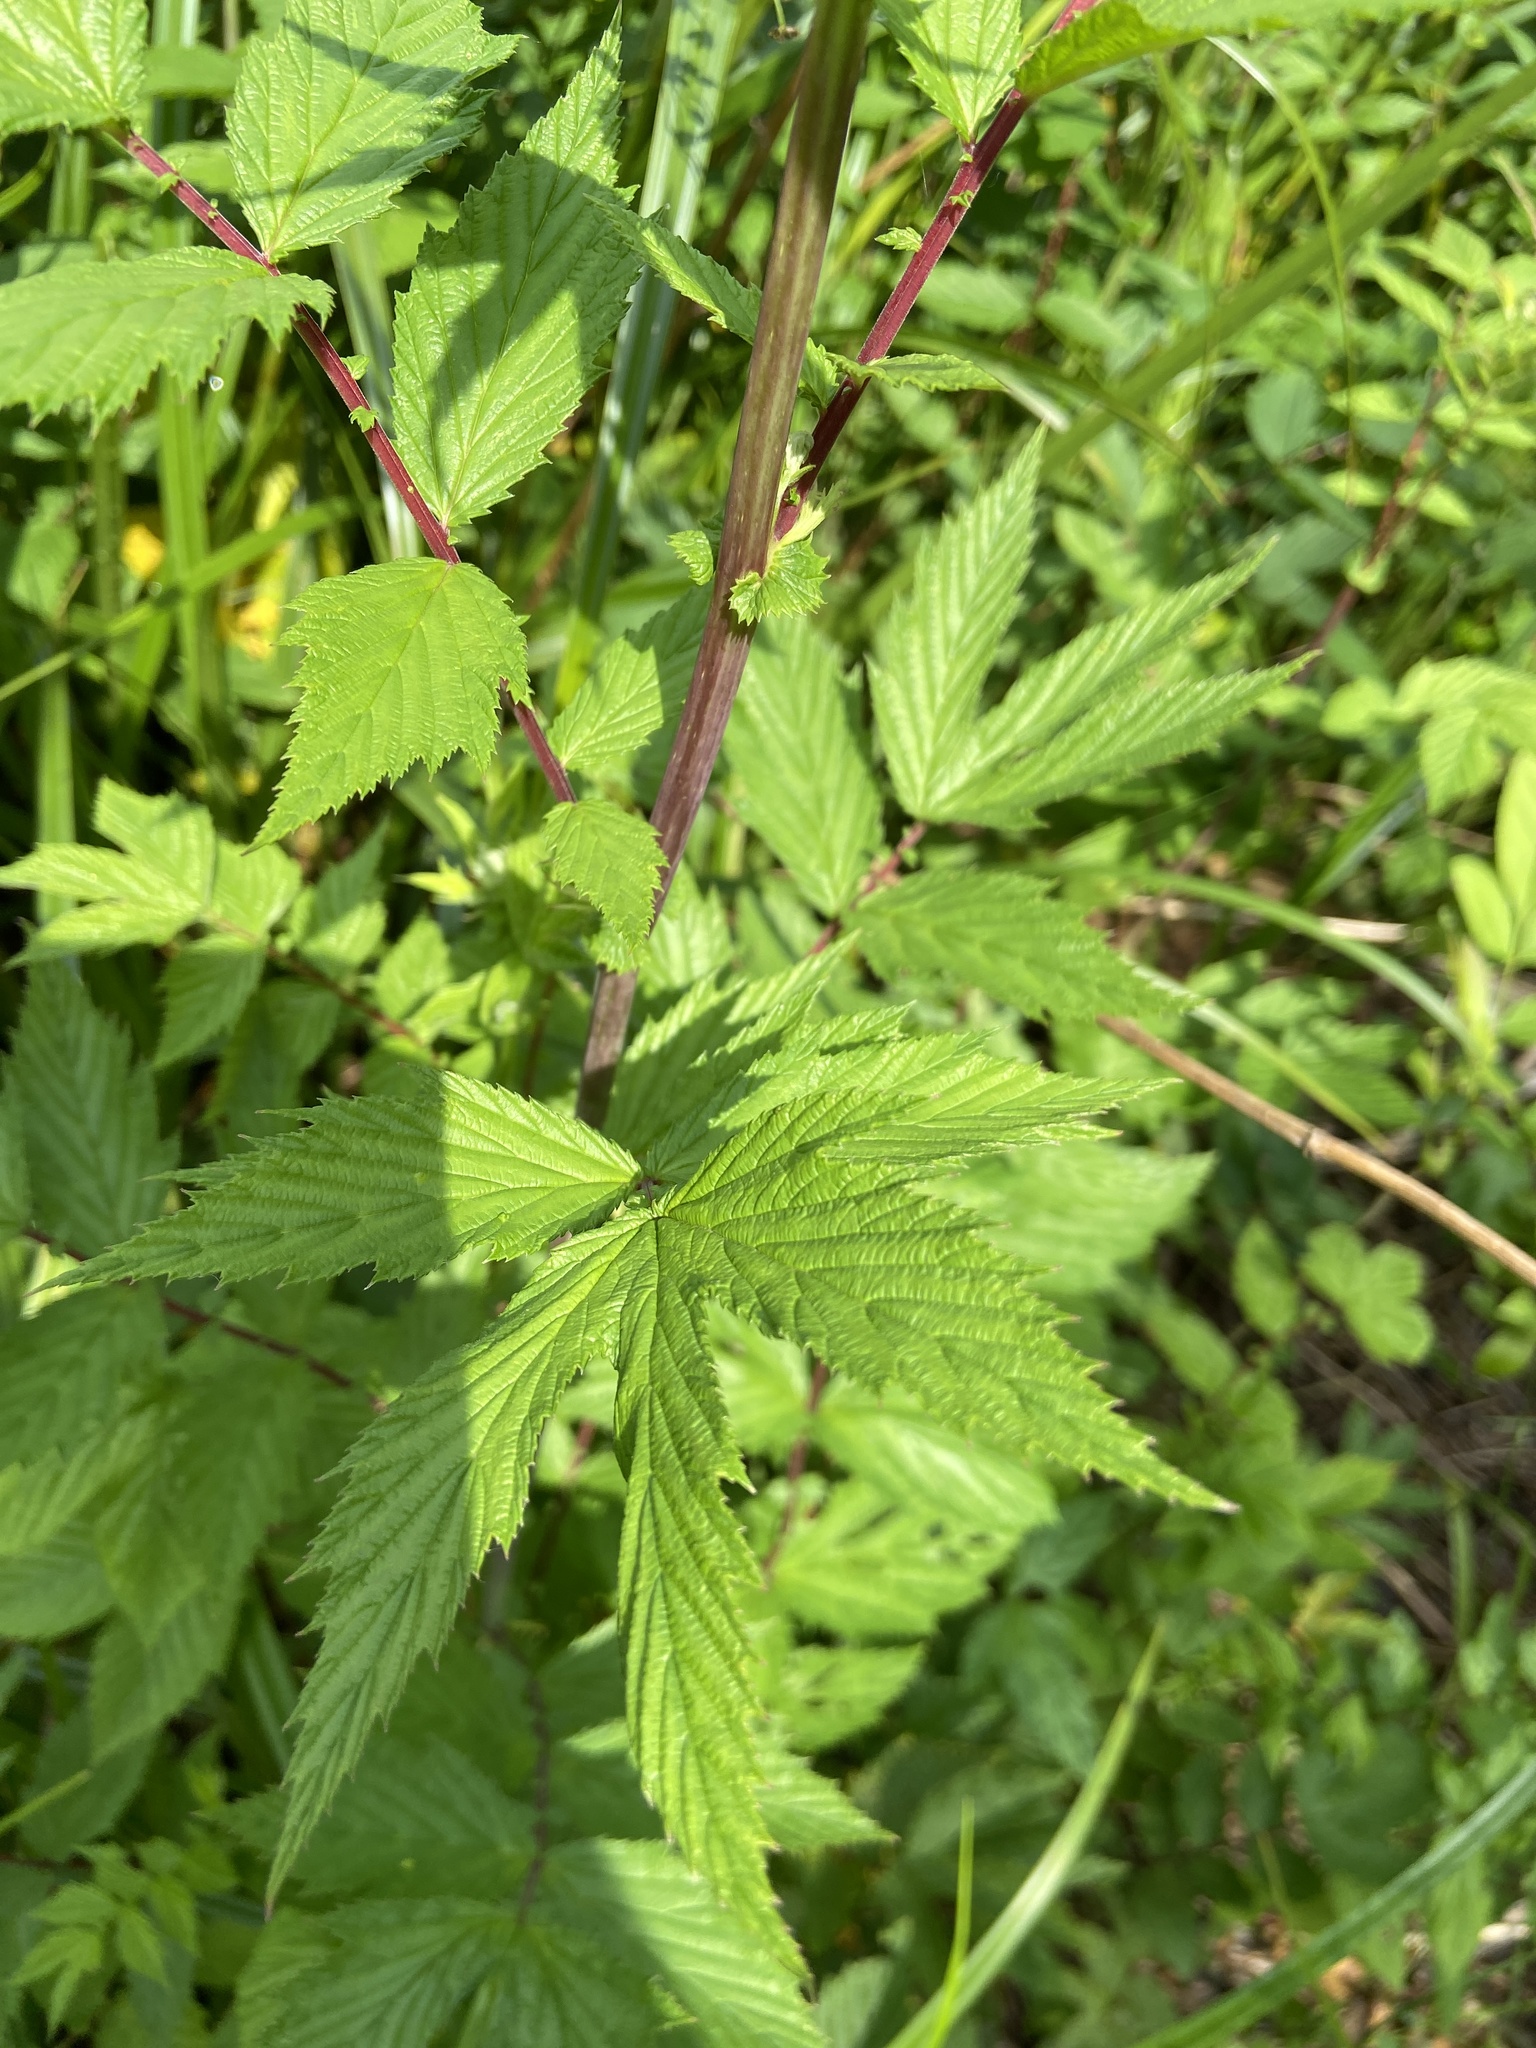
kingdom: Plantae
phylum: Tracheophyta
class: Magnoliopsida
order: Rosales
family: Rosaceae
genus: Filipendula
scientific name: Filipendula ulmaria
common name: Meadowsweet
